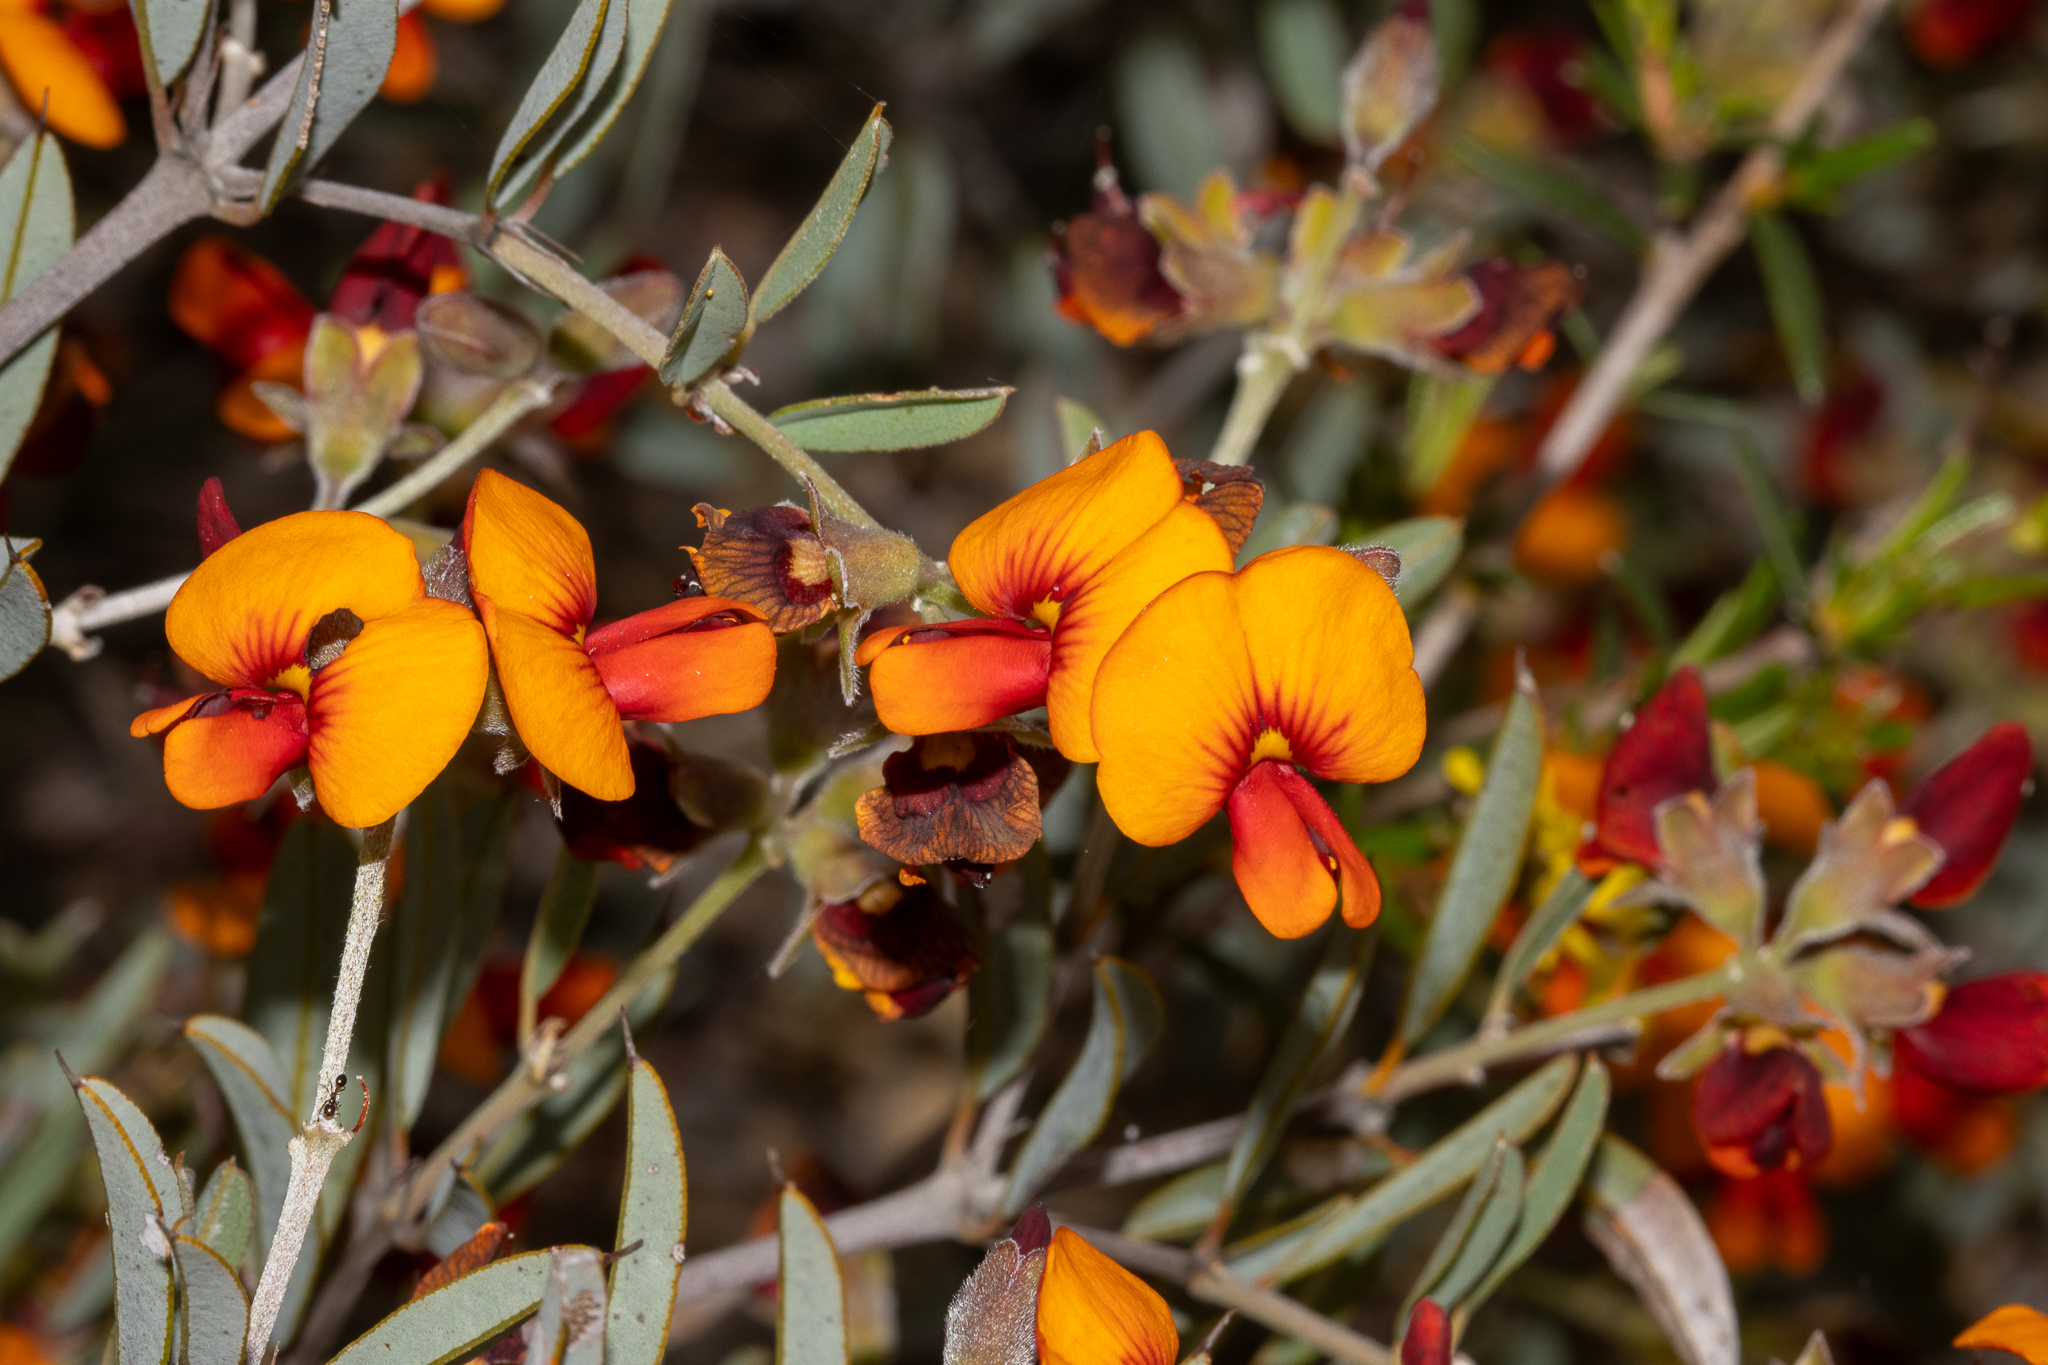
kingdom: Plantae
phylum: Tracheophyta
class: Magnoliopsida
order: Fabales
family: Fabaceae
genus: Gastrolobium
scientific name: Gastrolobium oxylobioides
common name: Champion bay poison
